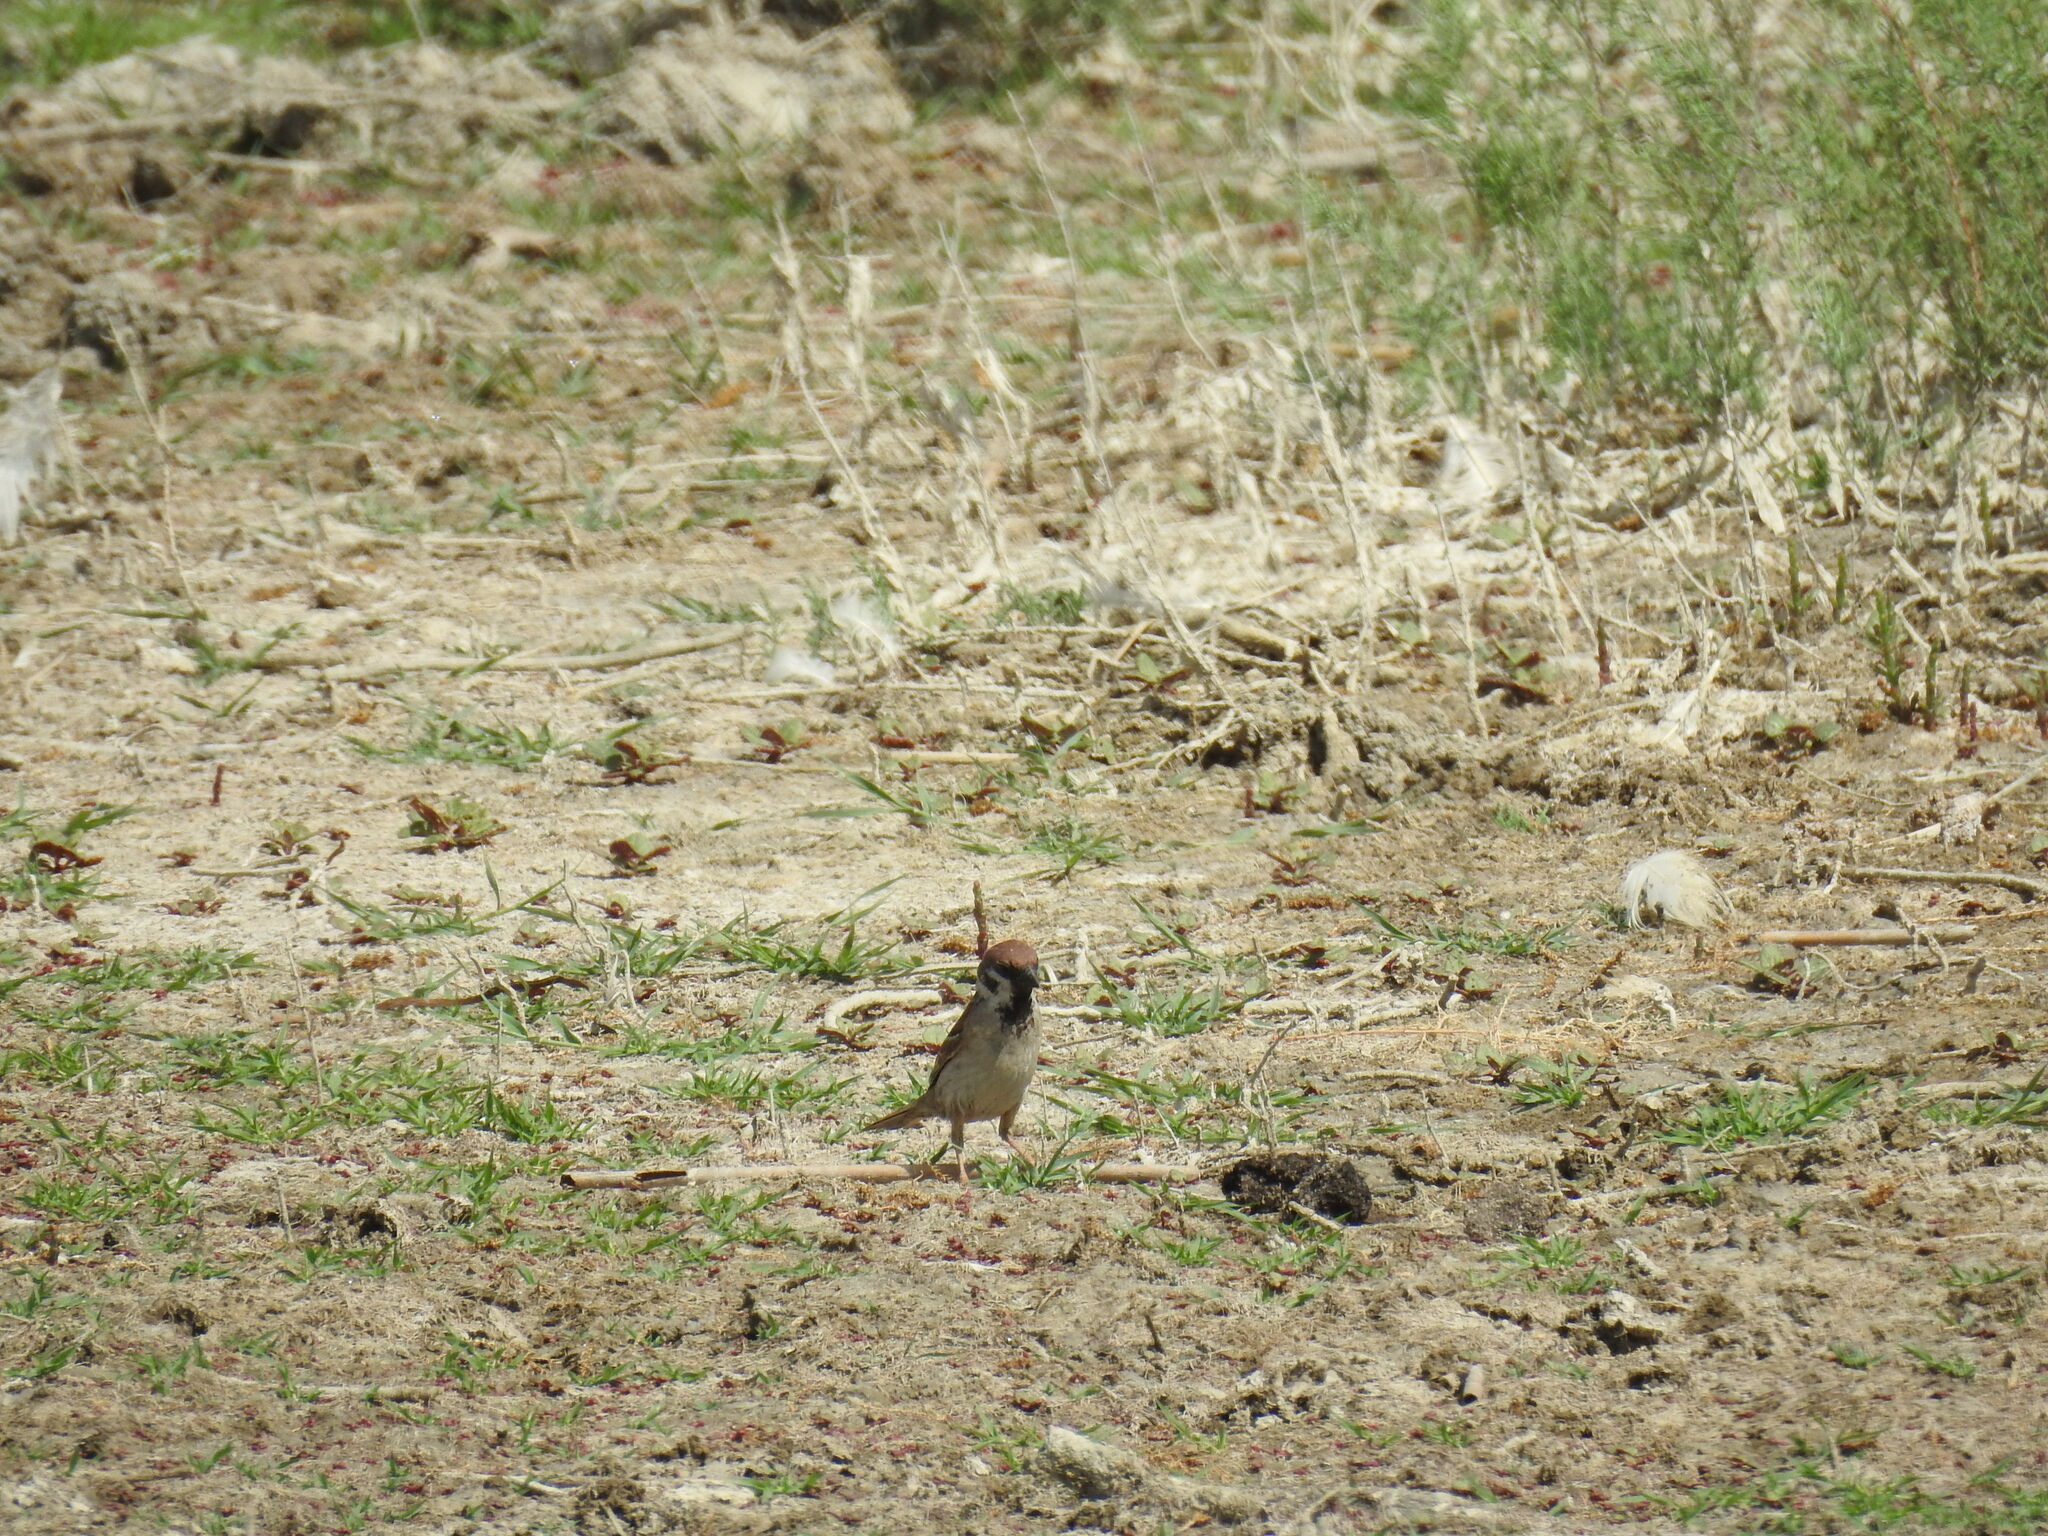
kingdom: Animalia
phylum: Chordata
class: Aves
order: Passeriformes
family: Passeridae
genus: Passer
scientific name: Passer montanus
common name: Eurasian tree sparrow
